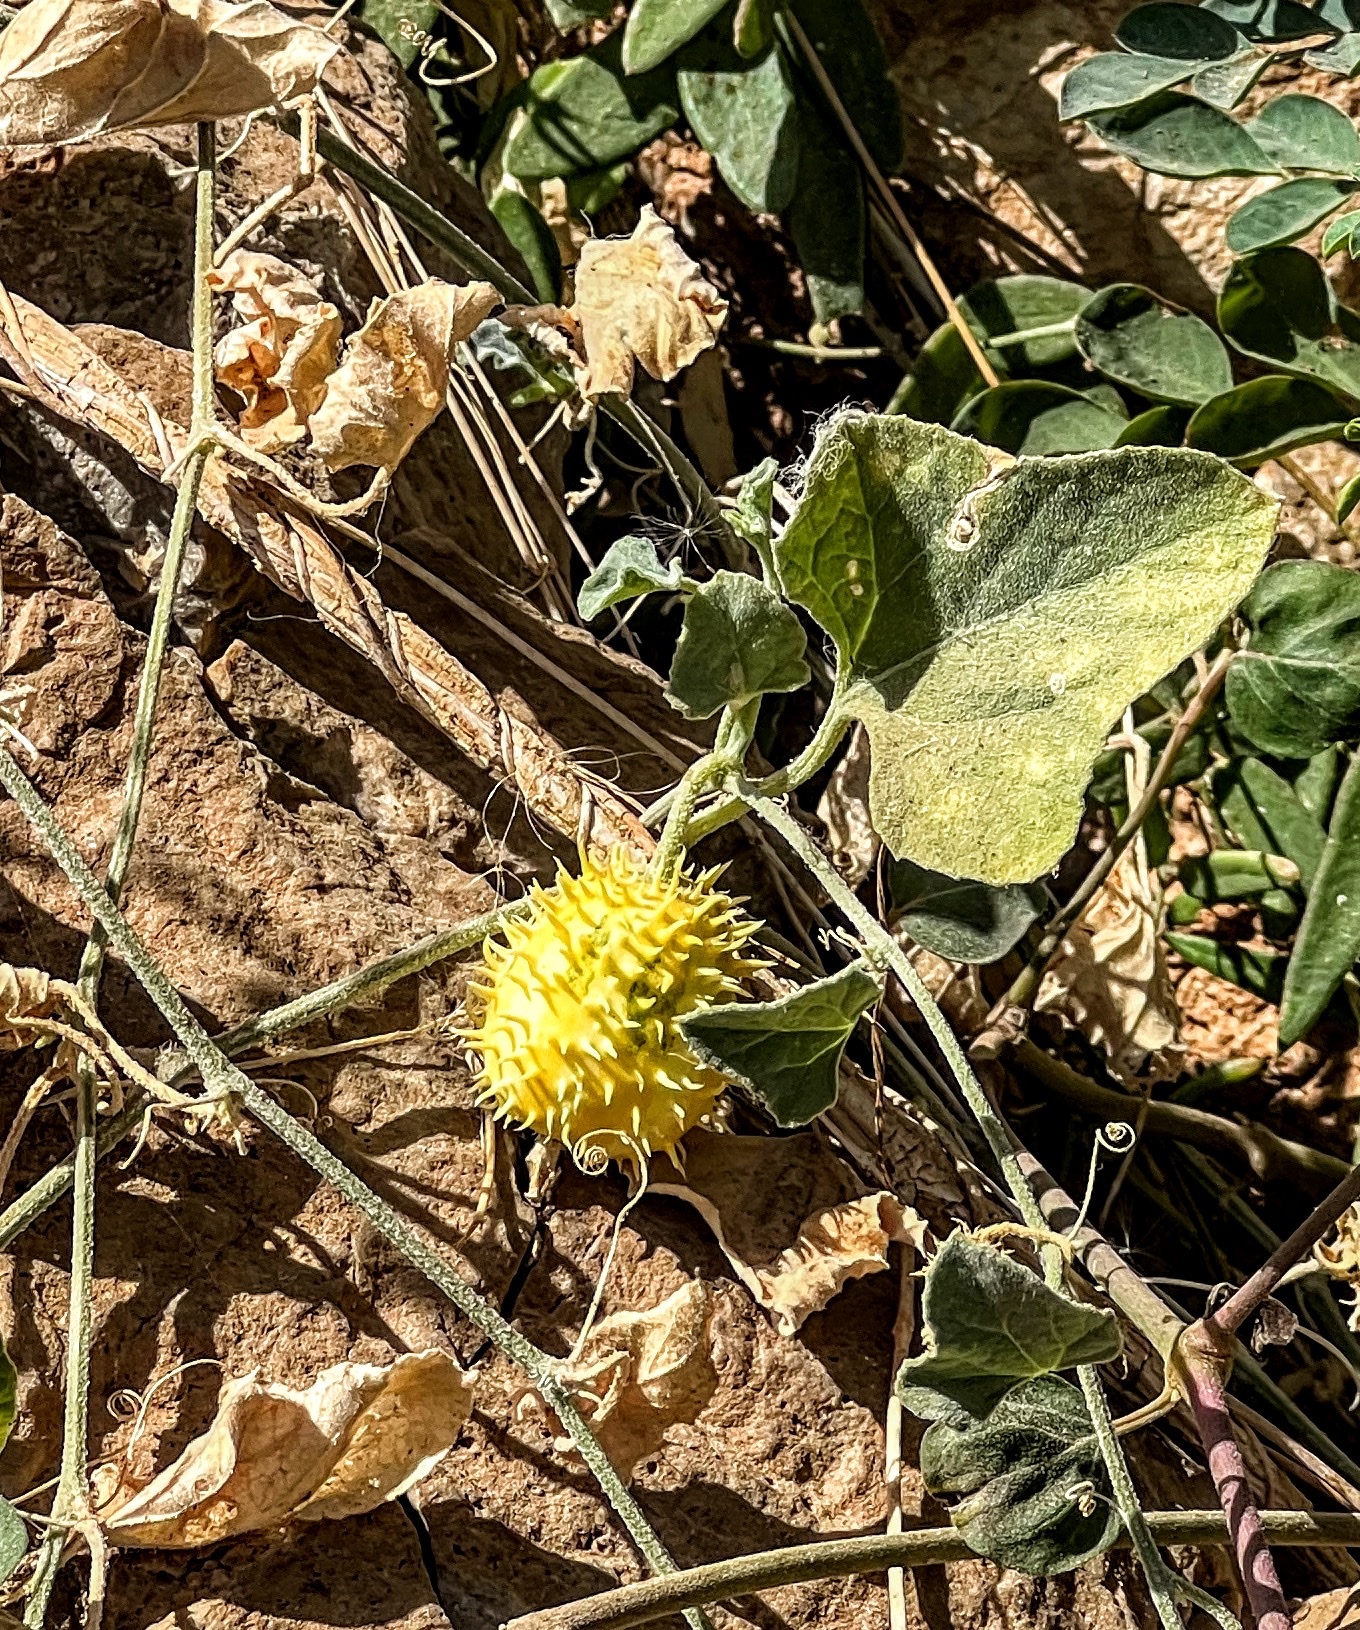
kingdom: Plantae
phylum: Tracheophyta
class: Magnoliopsida
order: Cucurbitales
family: Cucurbitaceae
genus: Cucumis
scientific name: Cucumis prophetarum
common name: Wild cucumber
